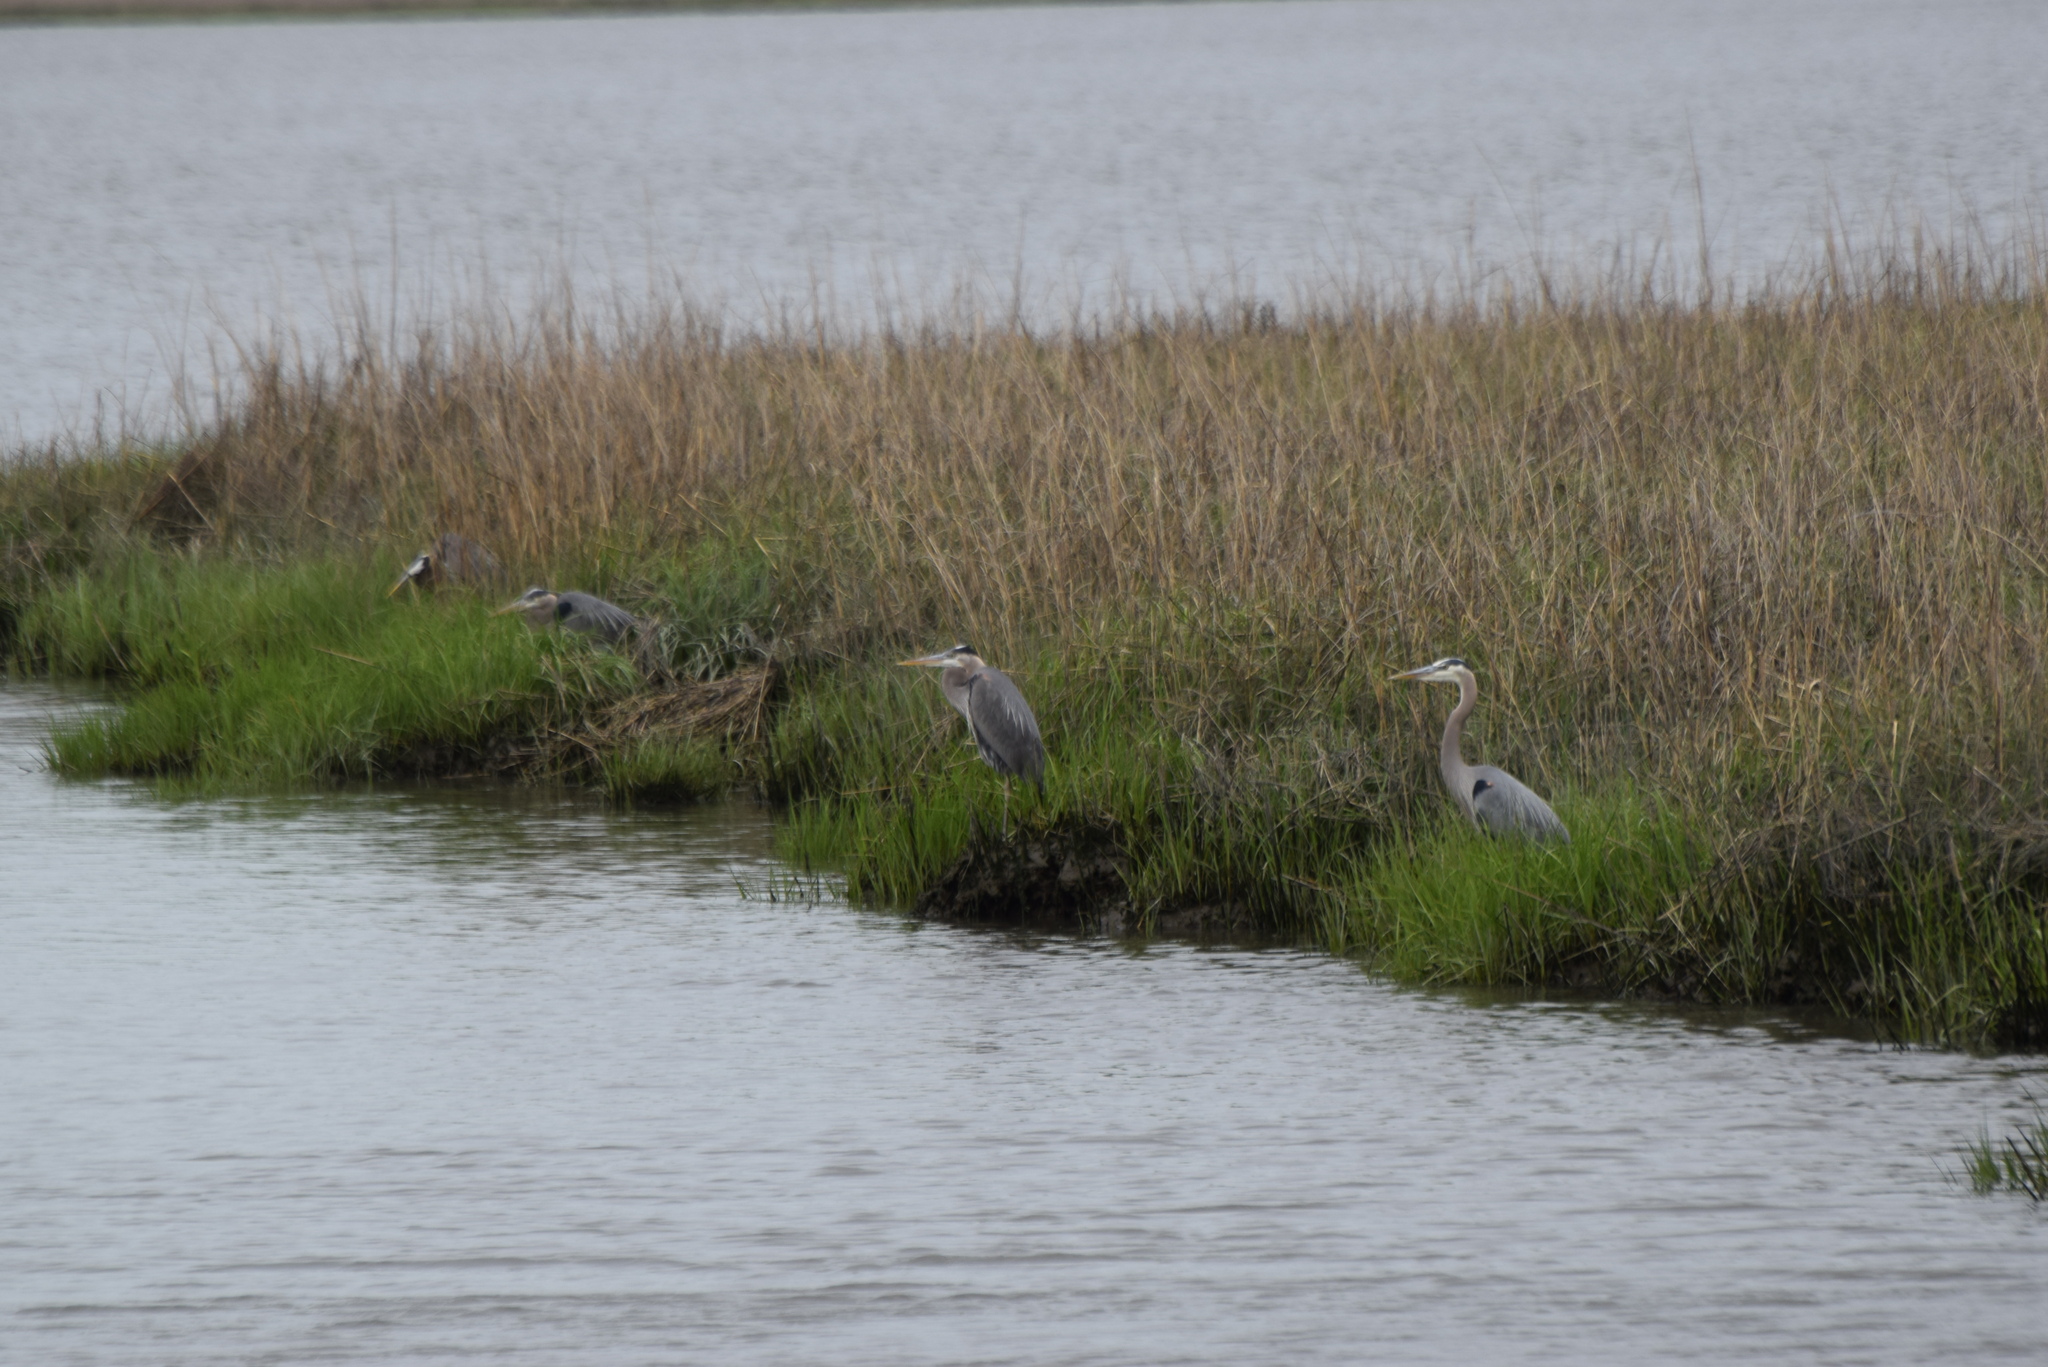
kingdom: Animalia
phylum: Chordata
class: Aves
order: Pelecaniformes
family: Ardeidae
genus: Ardea
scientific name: Ardea herodias
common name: Great blue heron
